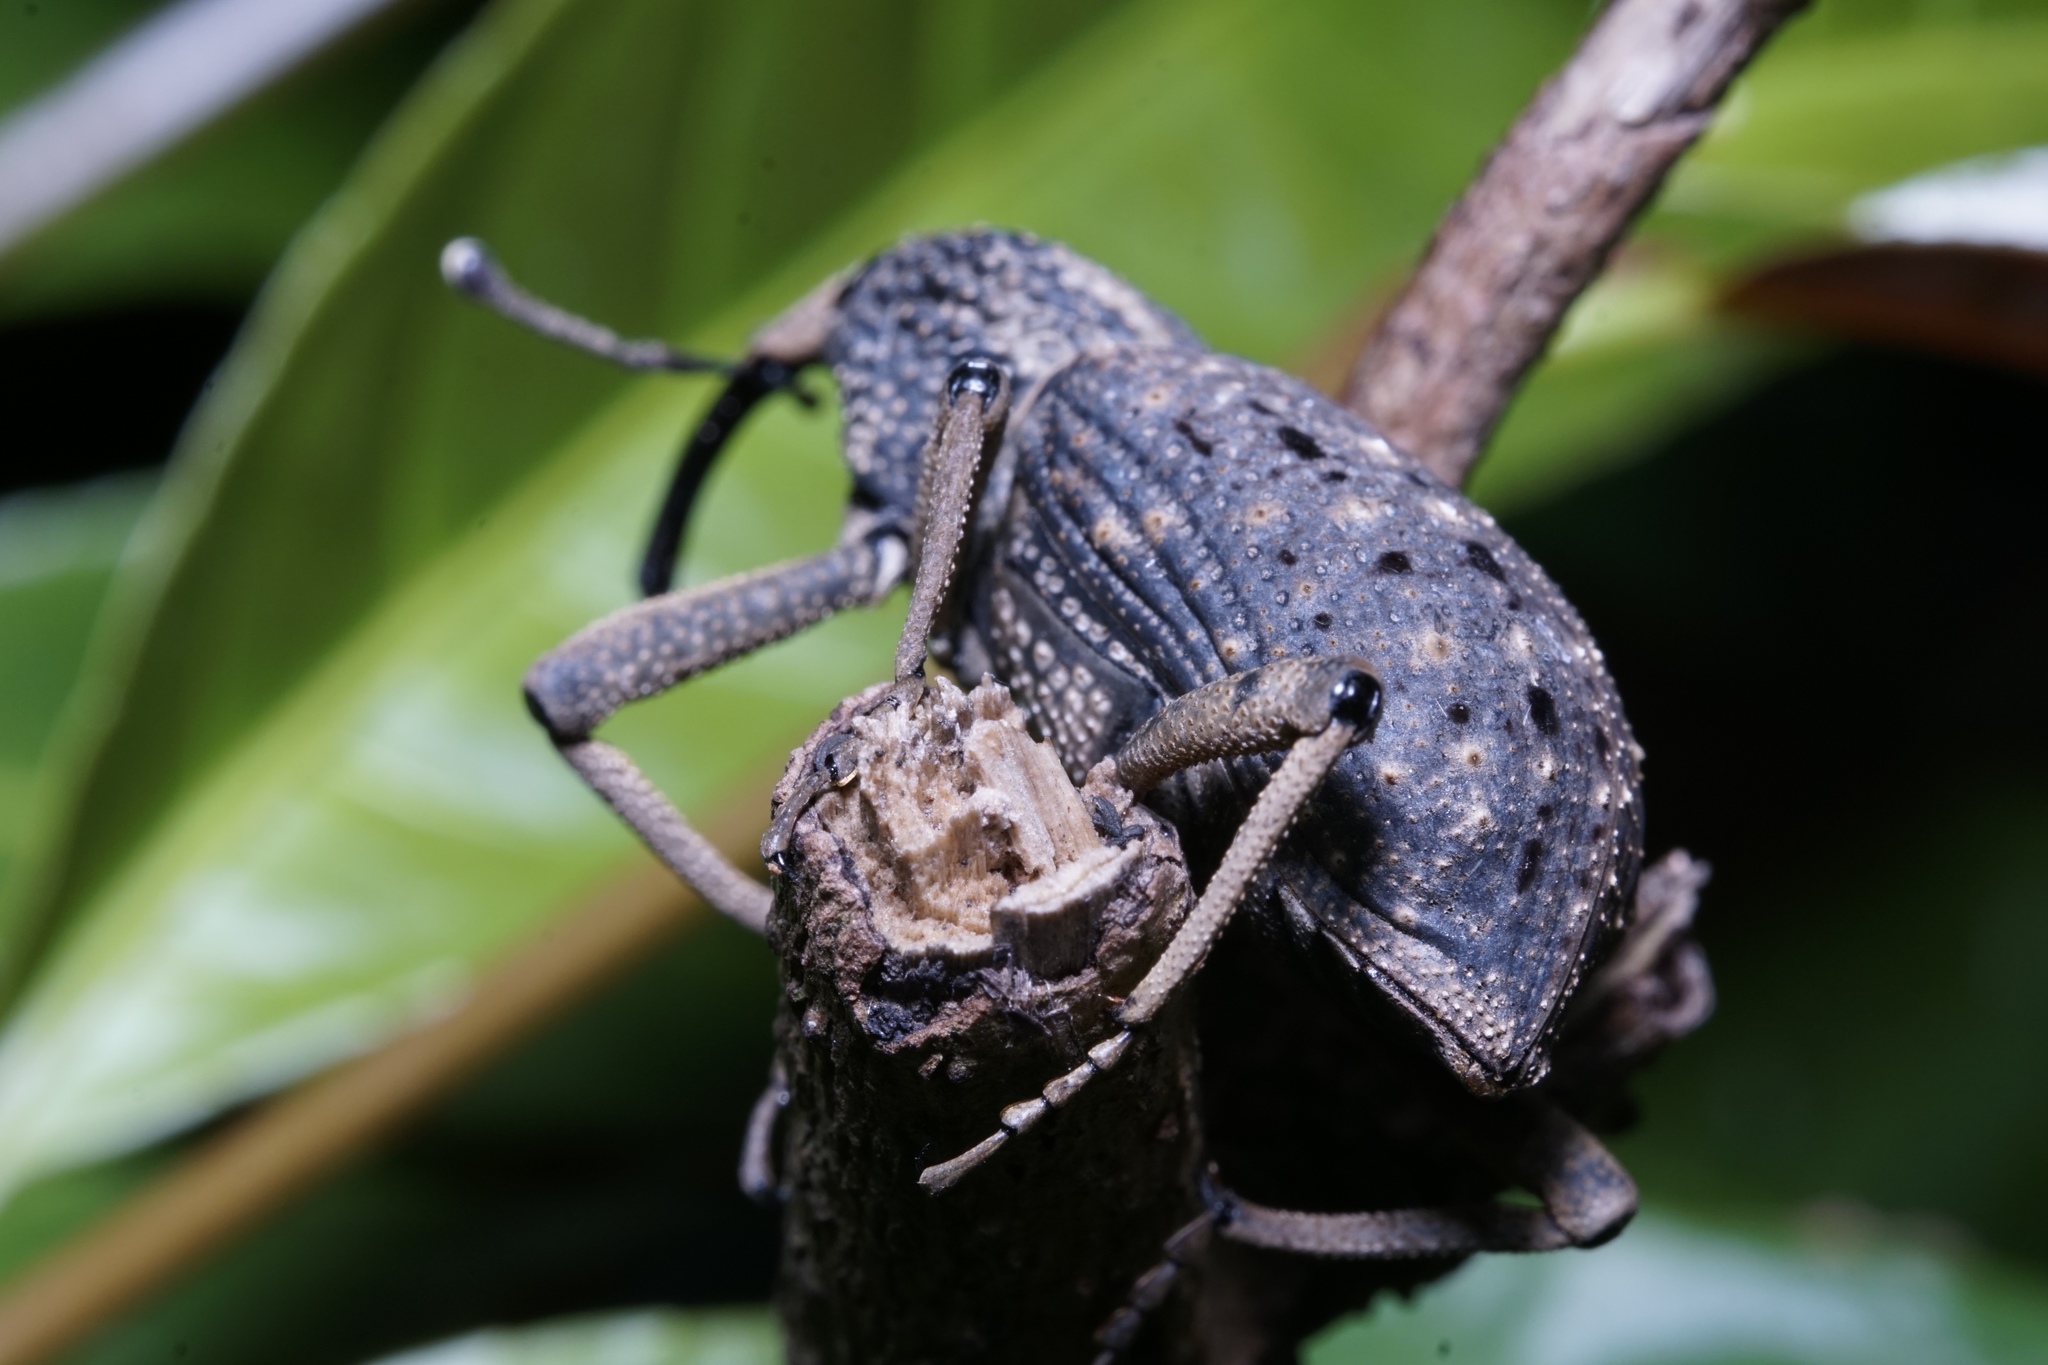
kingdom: Animalia
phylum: Arthropoda
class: Insecta
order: Coleoptera
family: Dryophthoridae
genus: Sipalinus
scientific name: Sipalinus gigas
